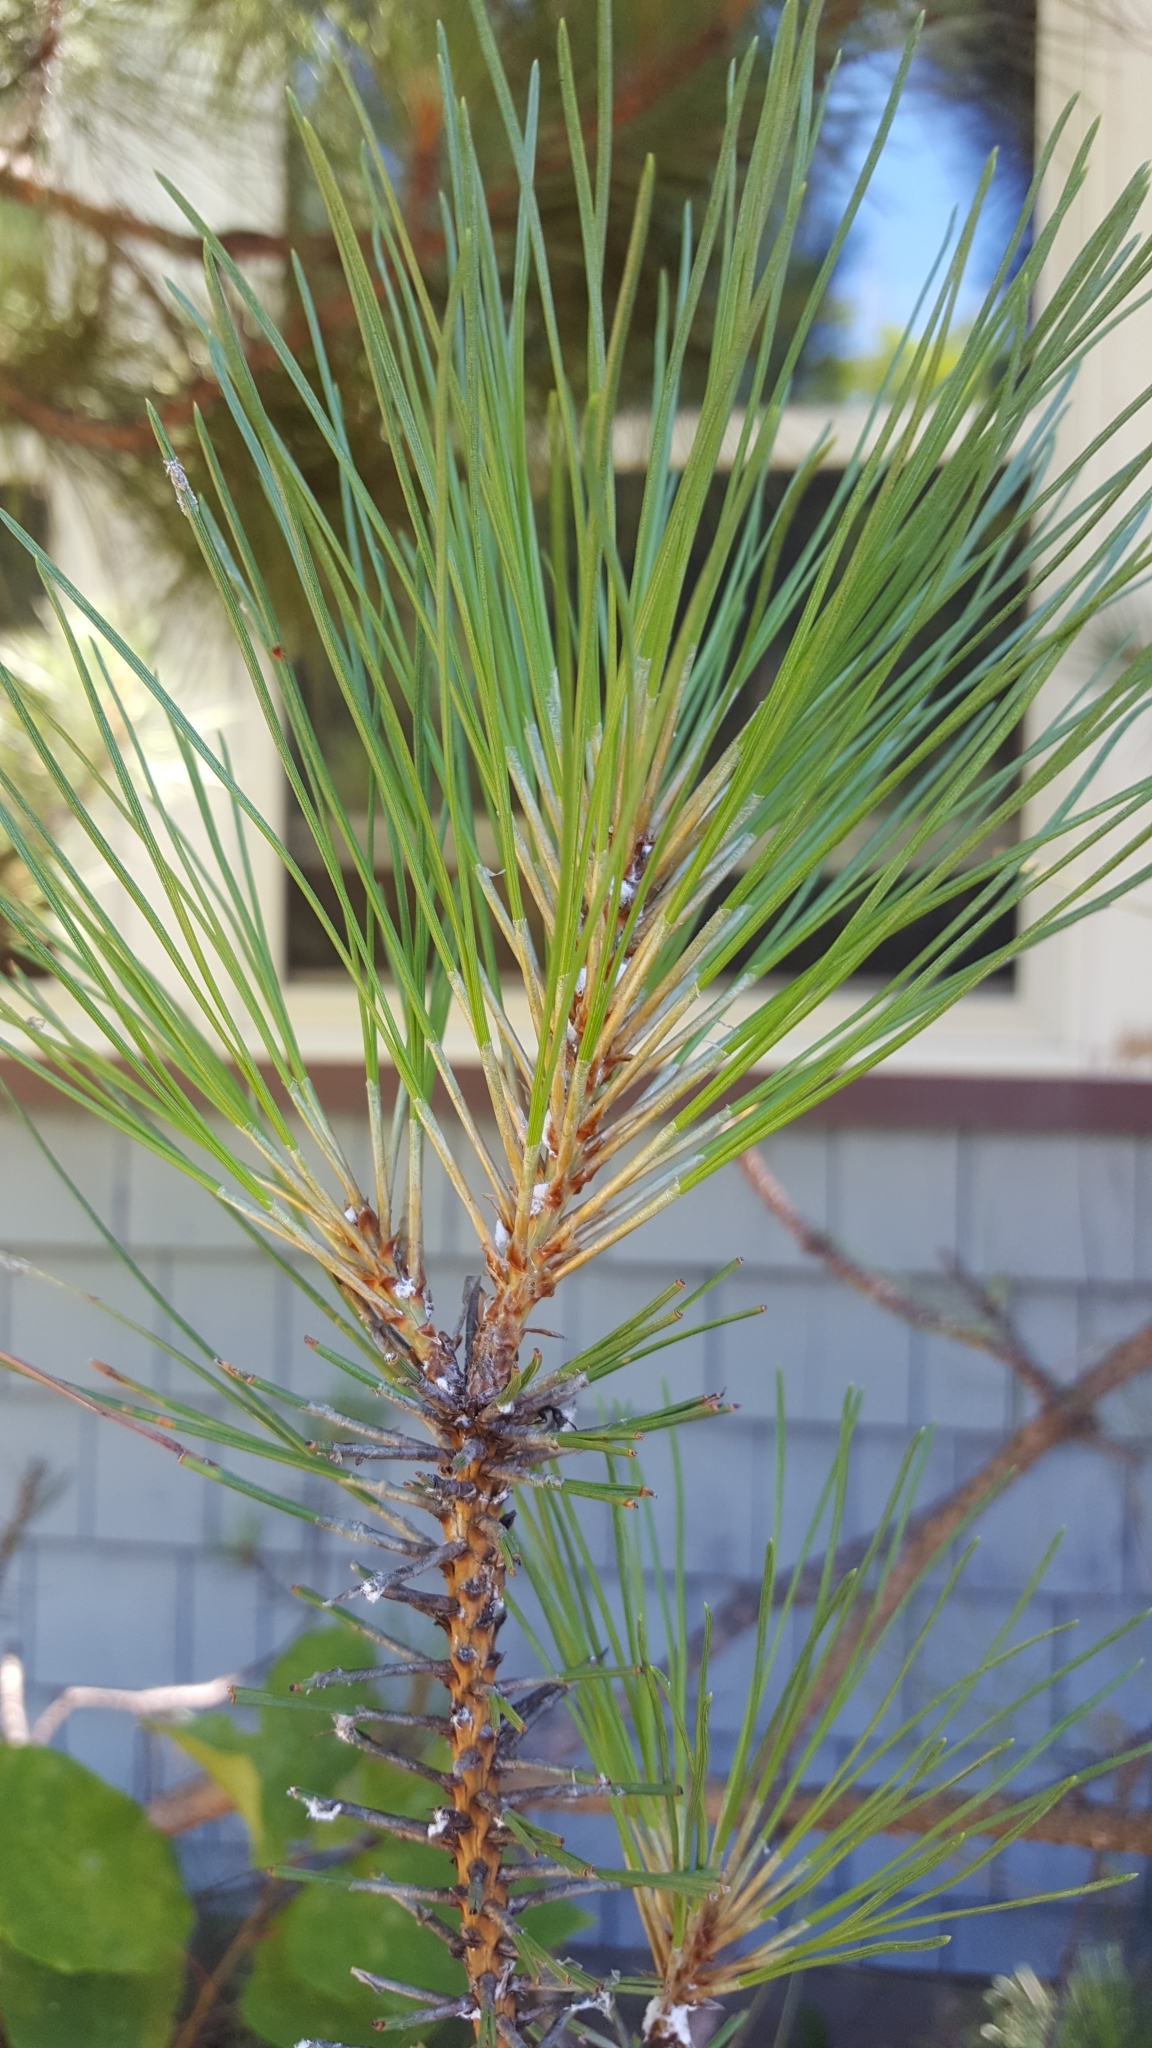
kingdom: Plantae
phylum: Tracheophyta
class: Pinopsida
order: Pinales
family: Pinaceae
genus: Pinus
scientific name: Pinus resinosa
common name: Norway pine
